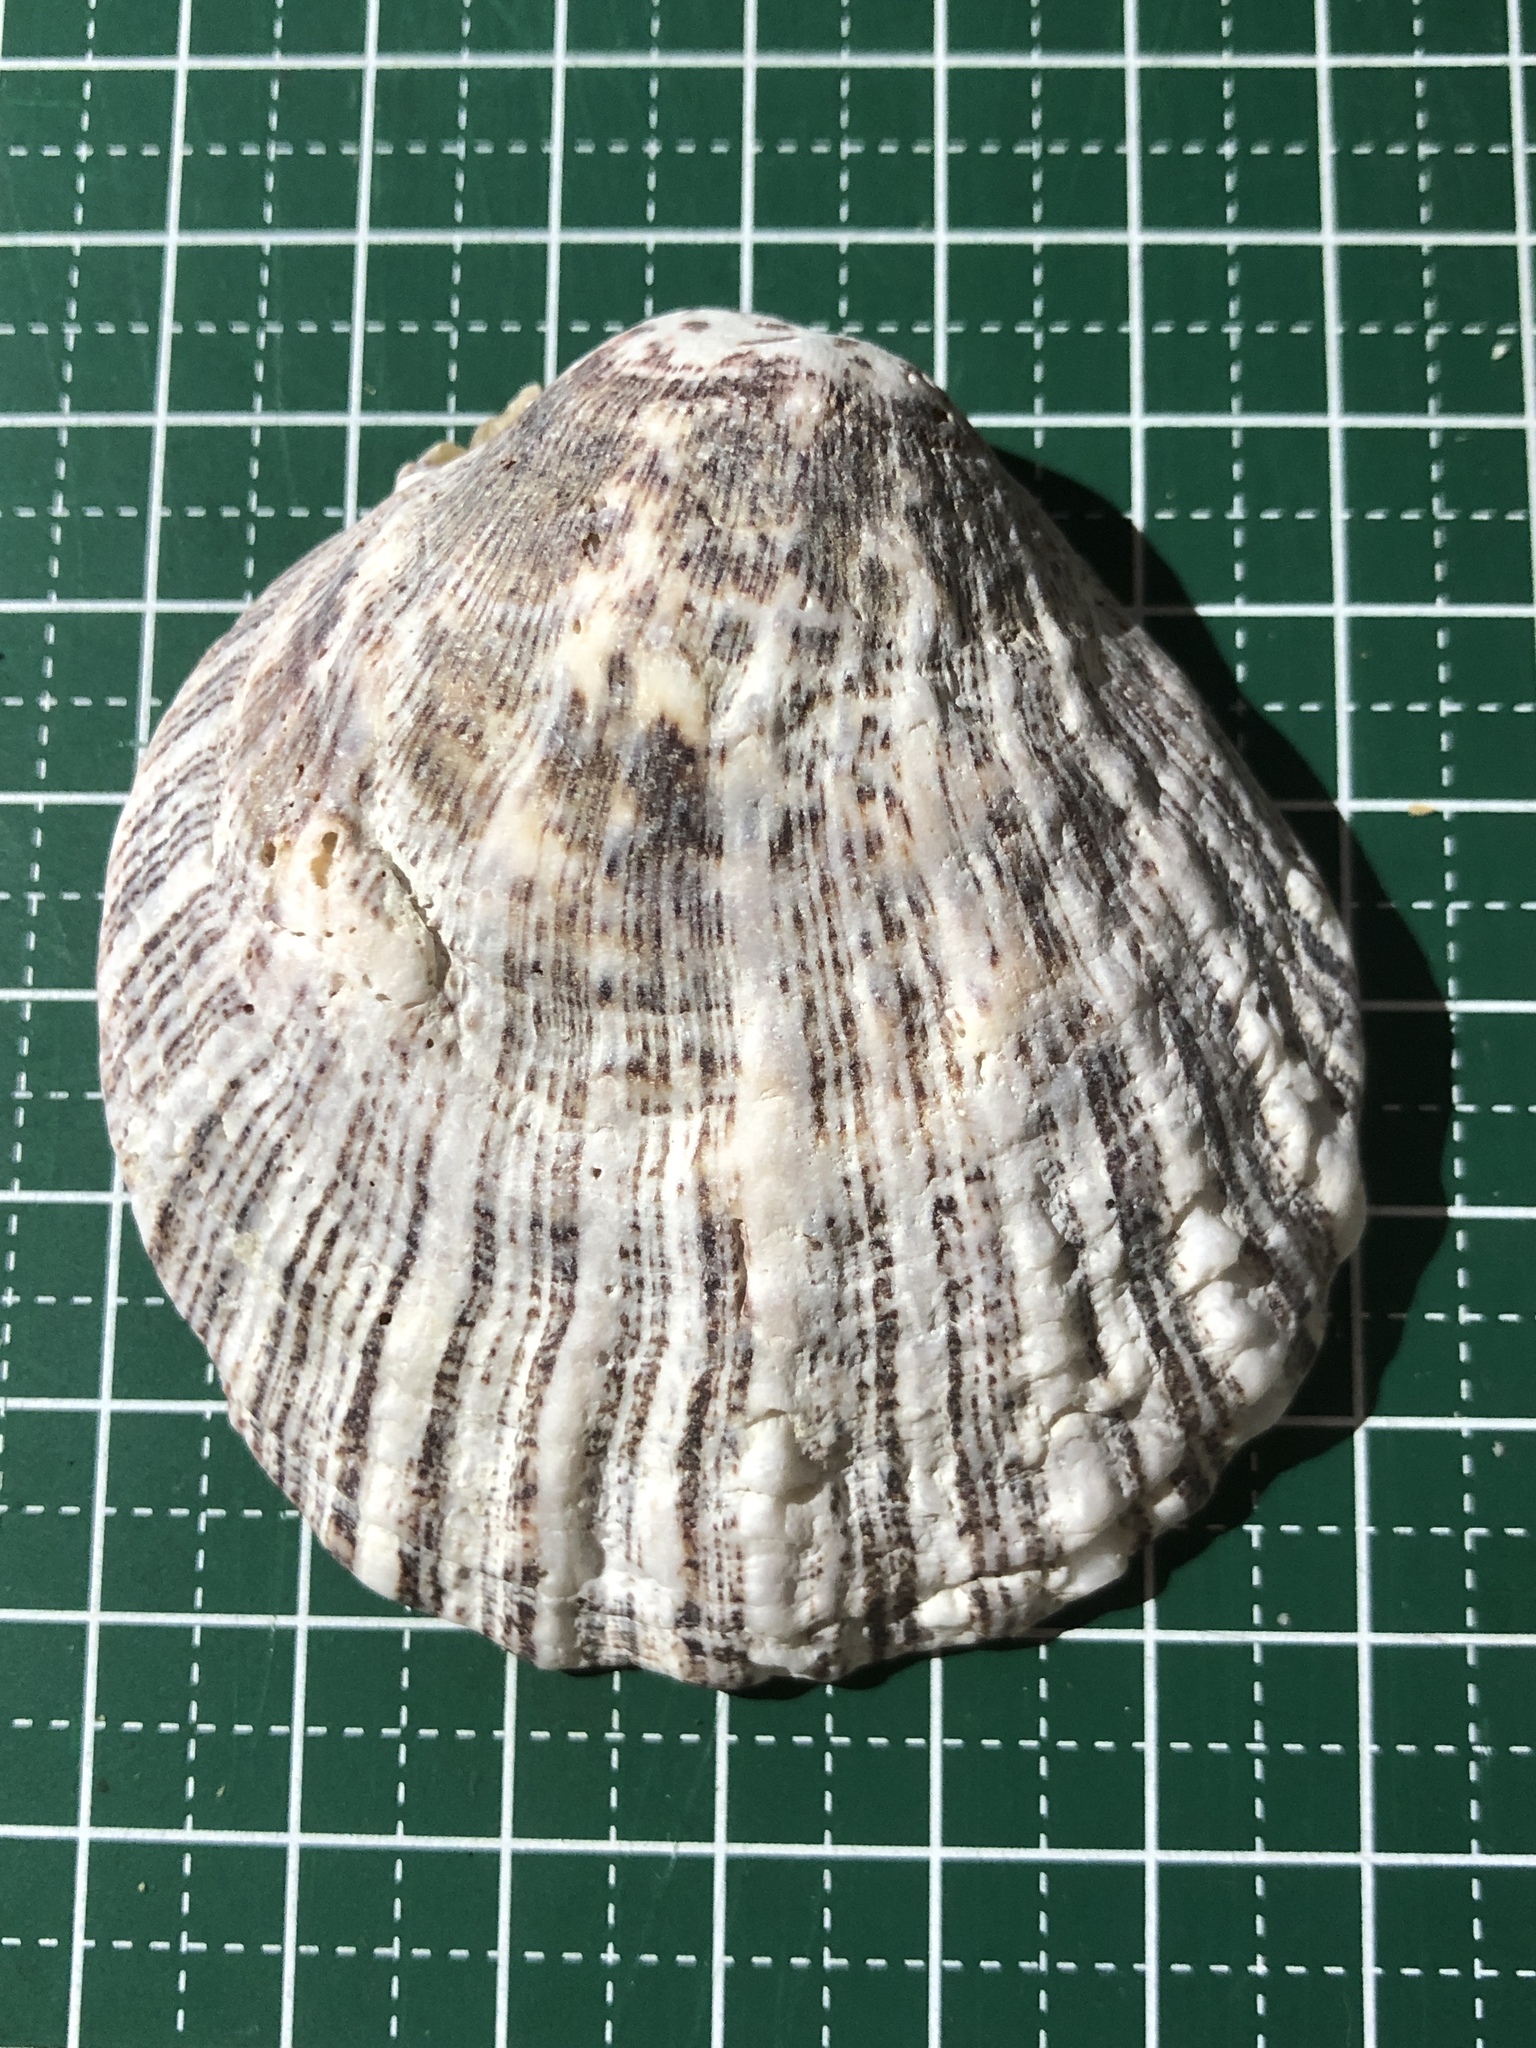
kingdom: Animalia
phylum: Mollusca
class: Bivalvia
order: Pectinida
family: Spondylidae
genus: Spondylus
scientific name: Spondylus squamosus
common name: Scaly thorny oyster
